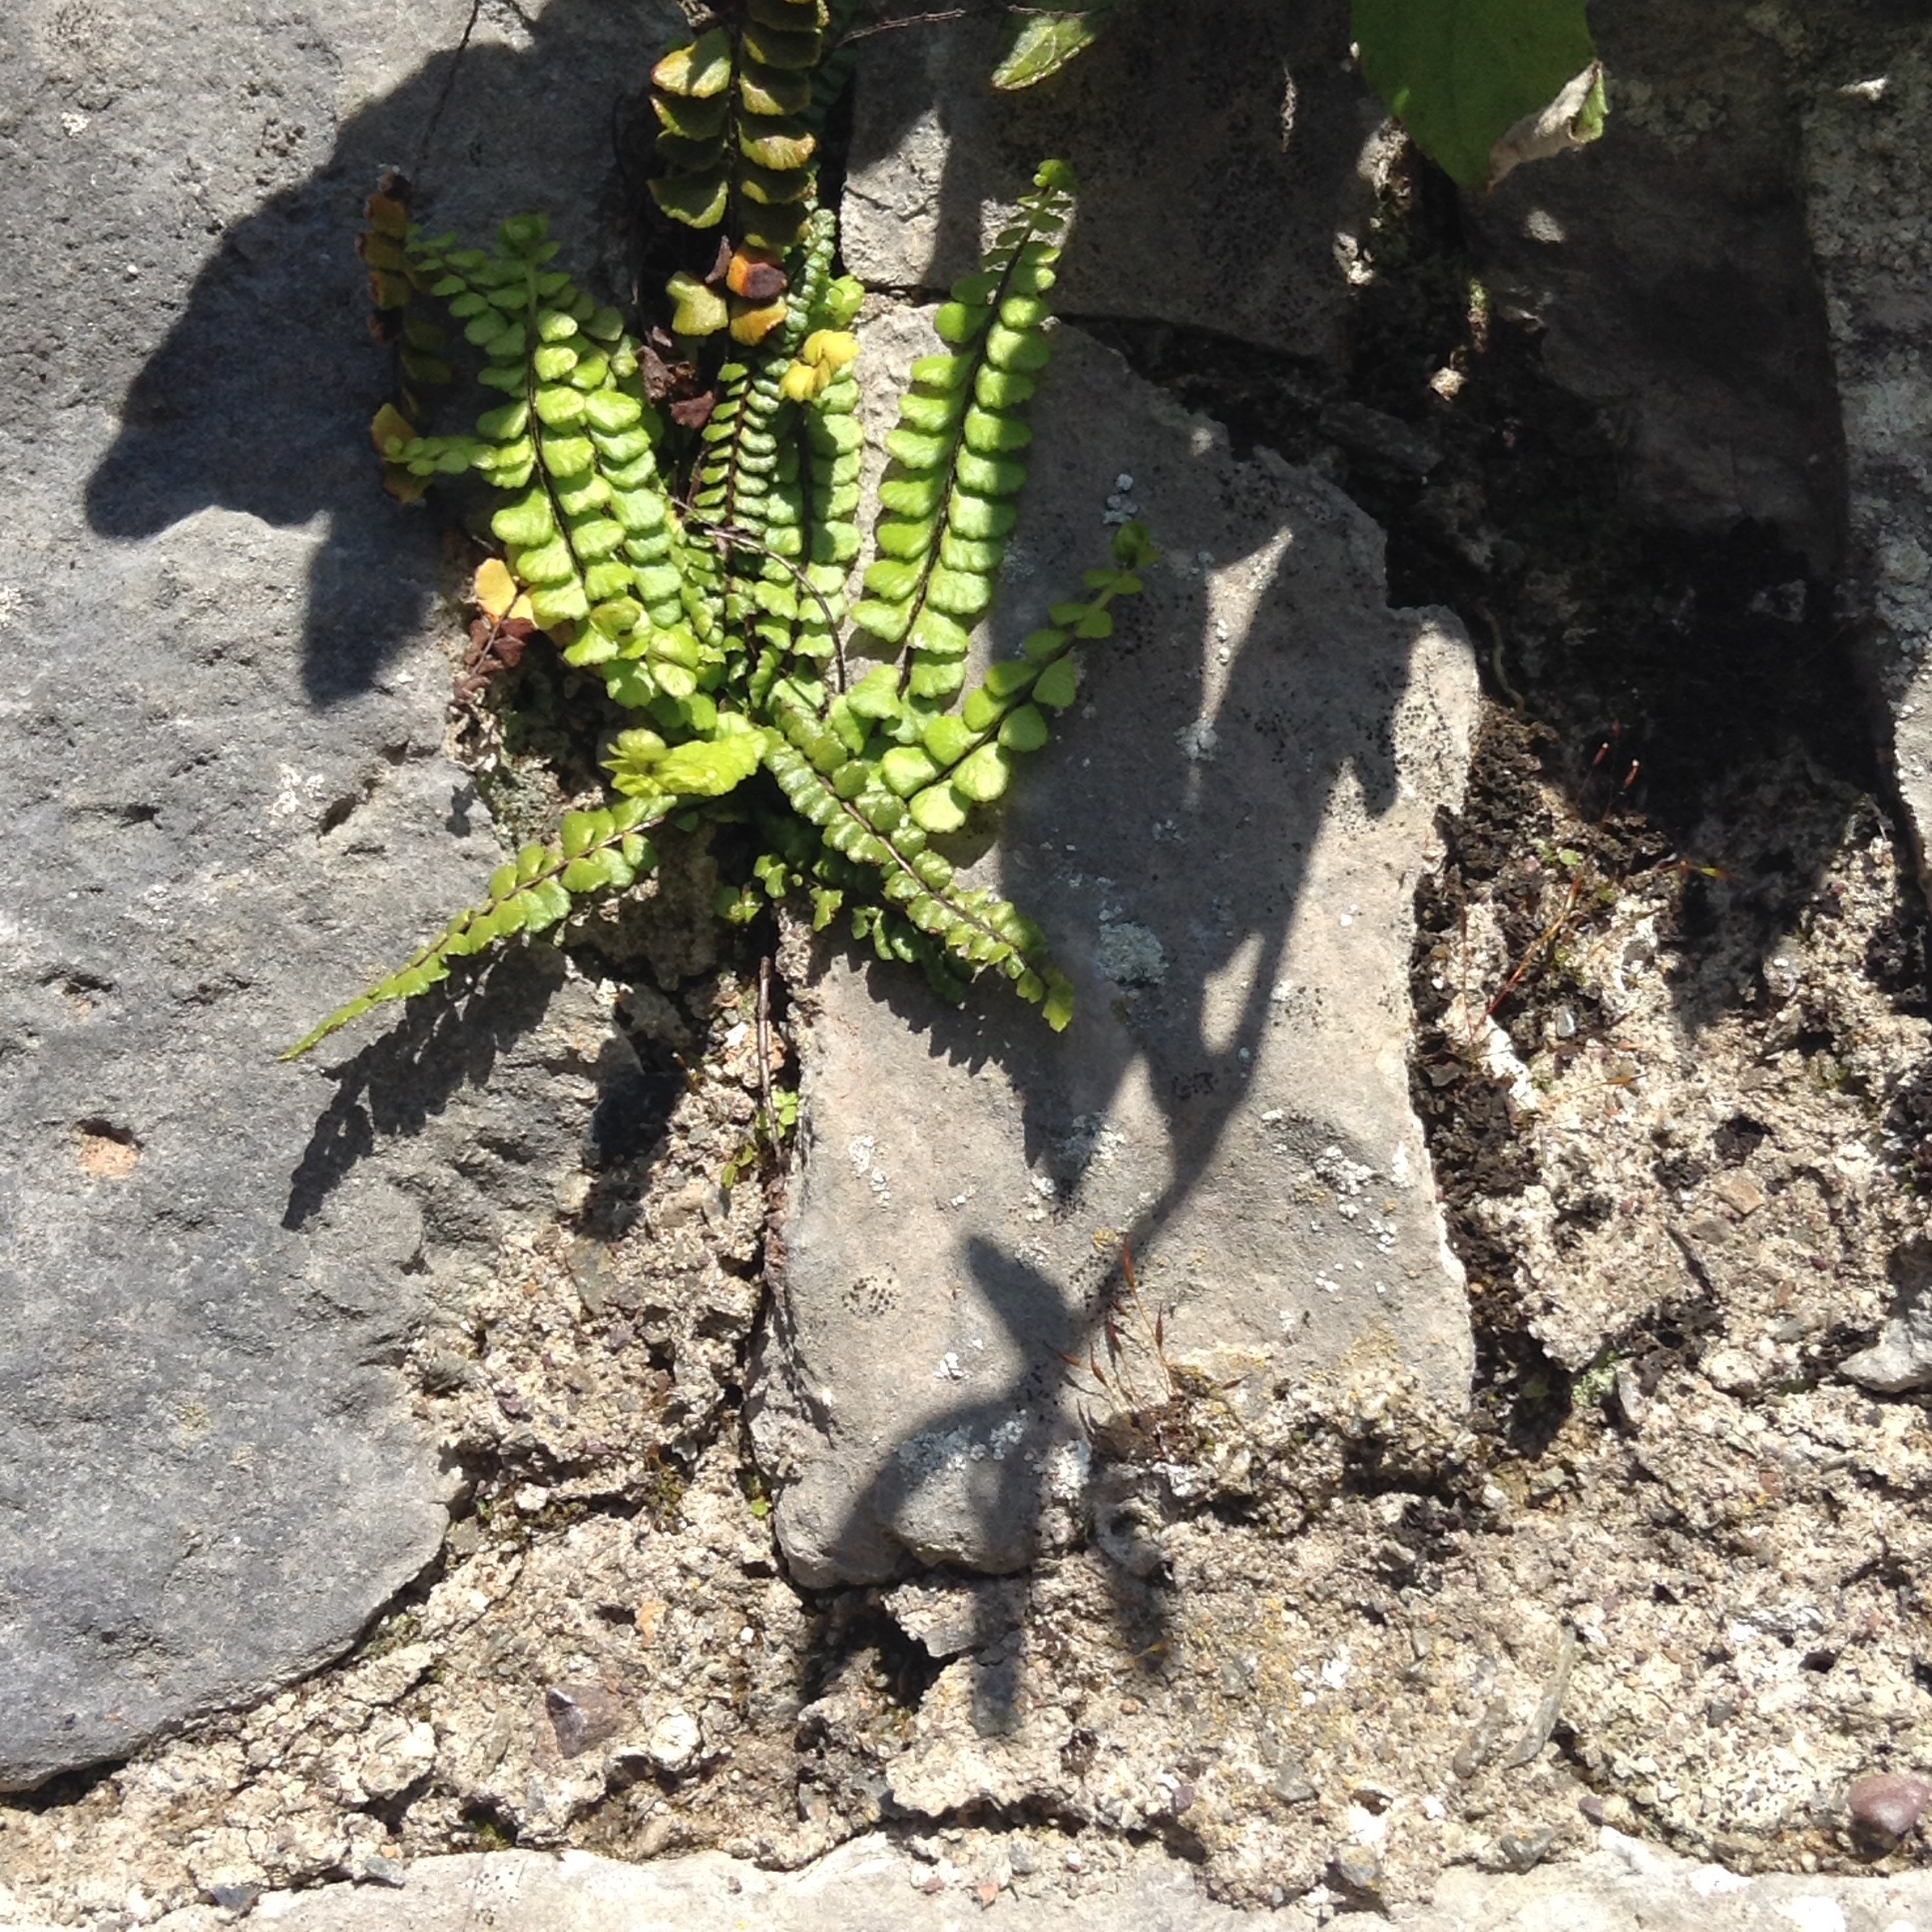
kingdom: Plantae
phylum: Tracheophyta
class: Polypodiopsida
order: Polypodiales
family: Aspleniaceae
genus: Asplenium
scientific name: Asplenium trichomanes
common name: Maidenhair spleenwort
